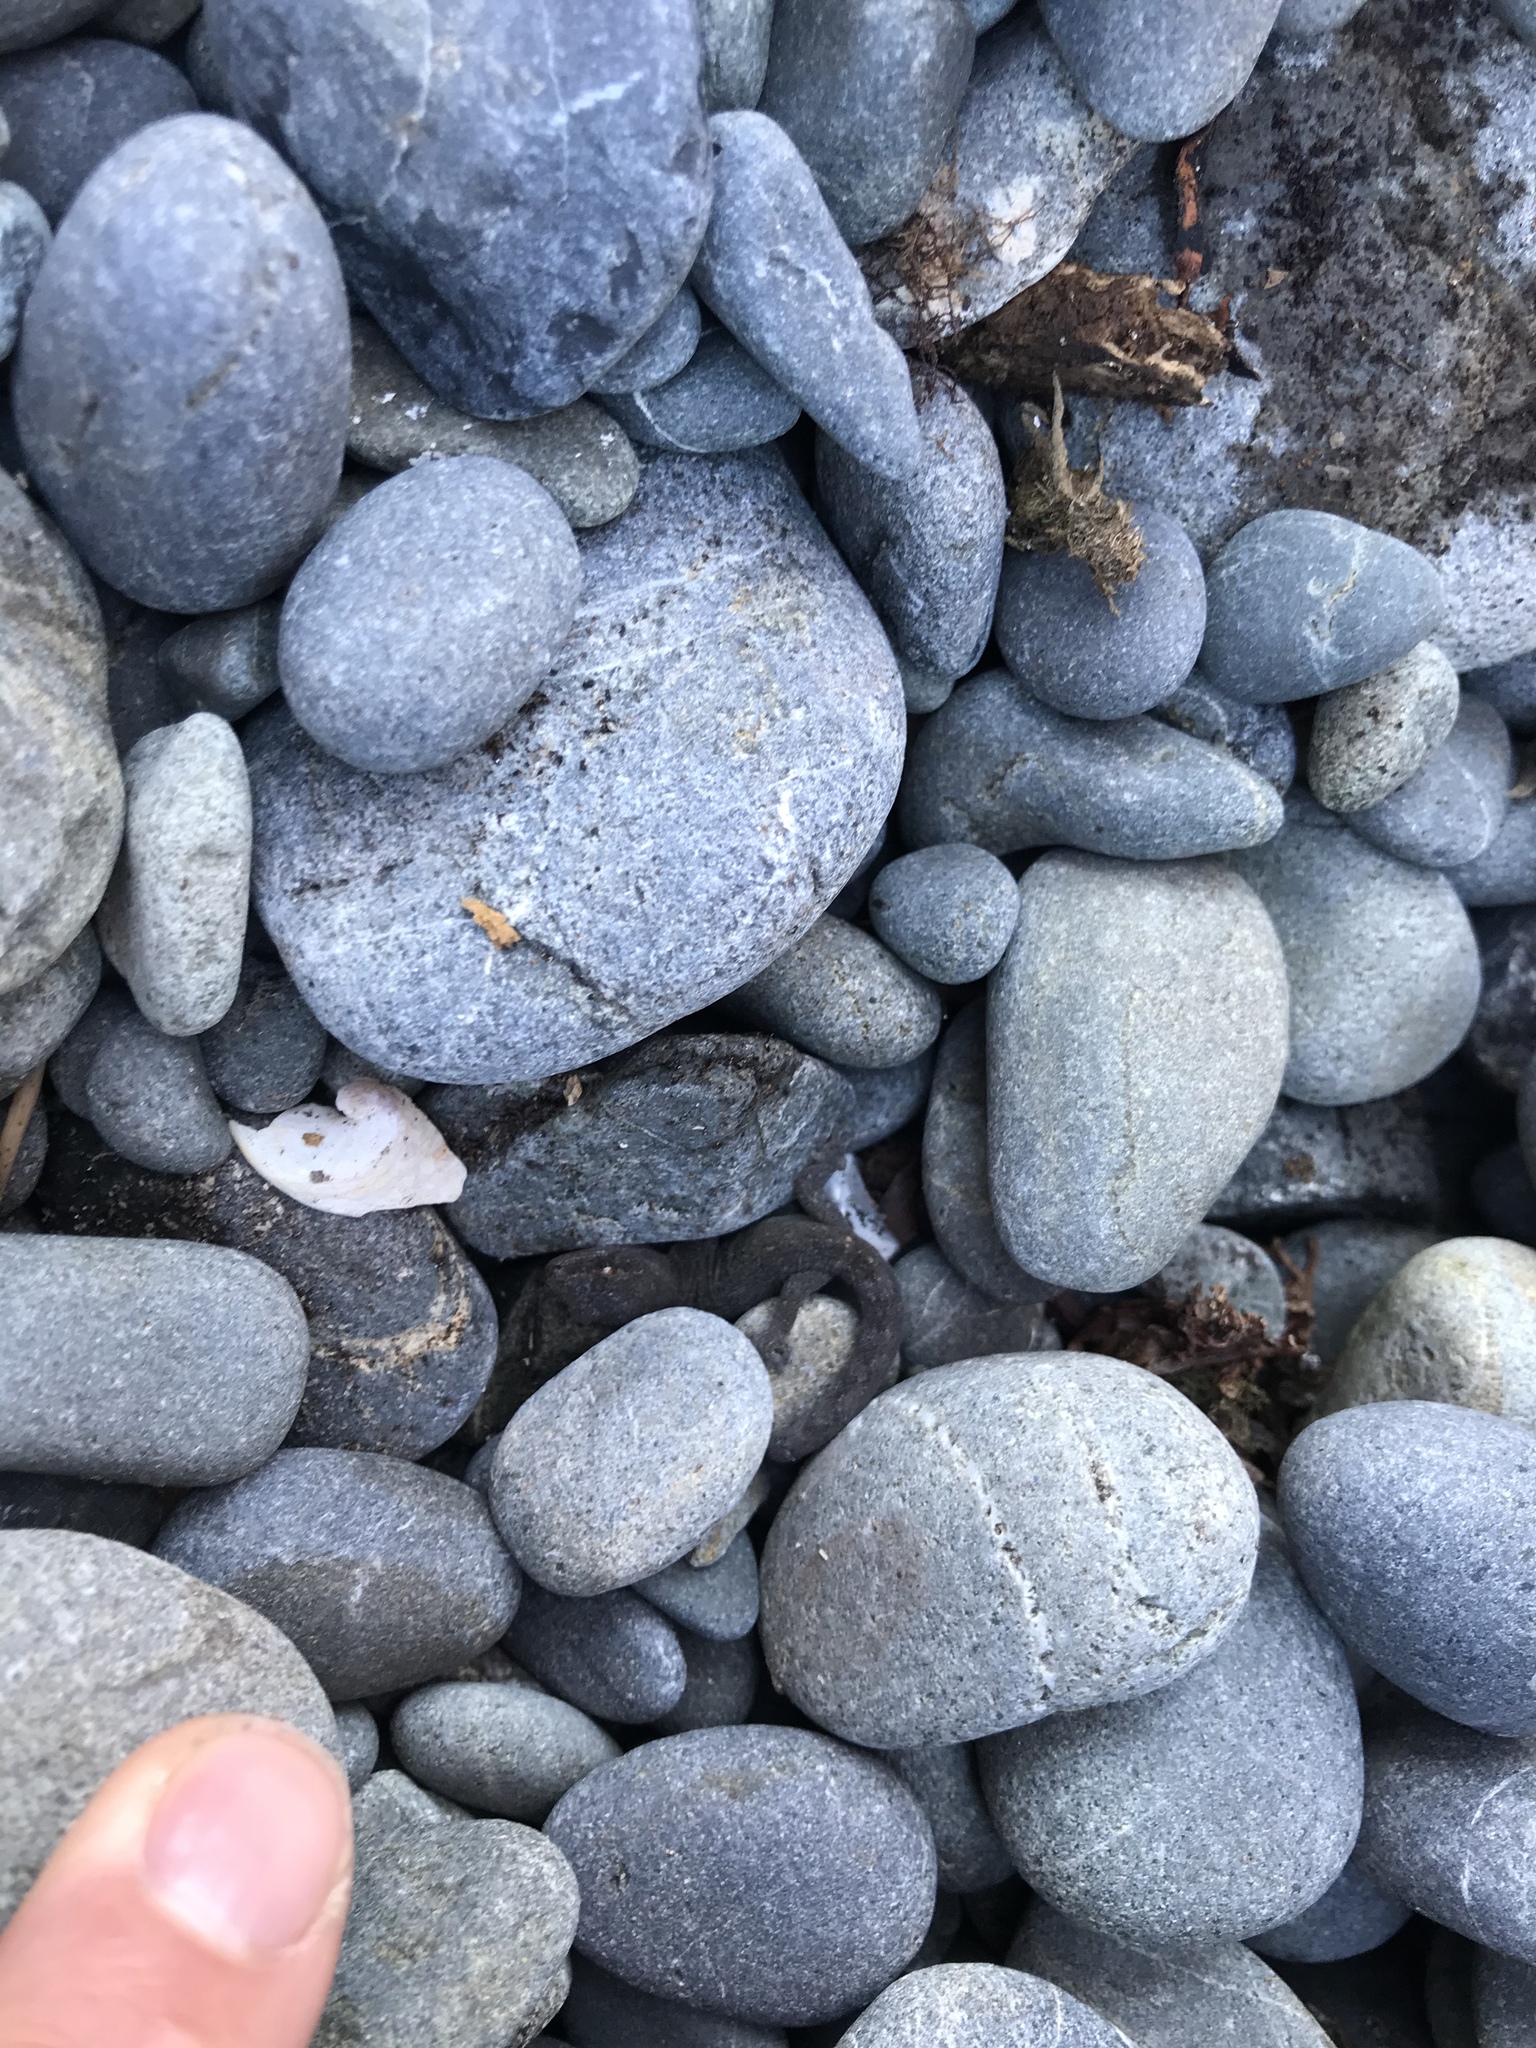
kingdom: Animalia
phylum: Chordata
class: Squamata
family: Diplodactylidae
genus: Woodworthia
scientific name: Woodworthia maculata
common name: Raukawa gecko
